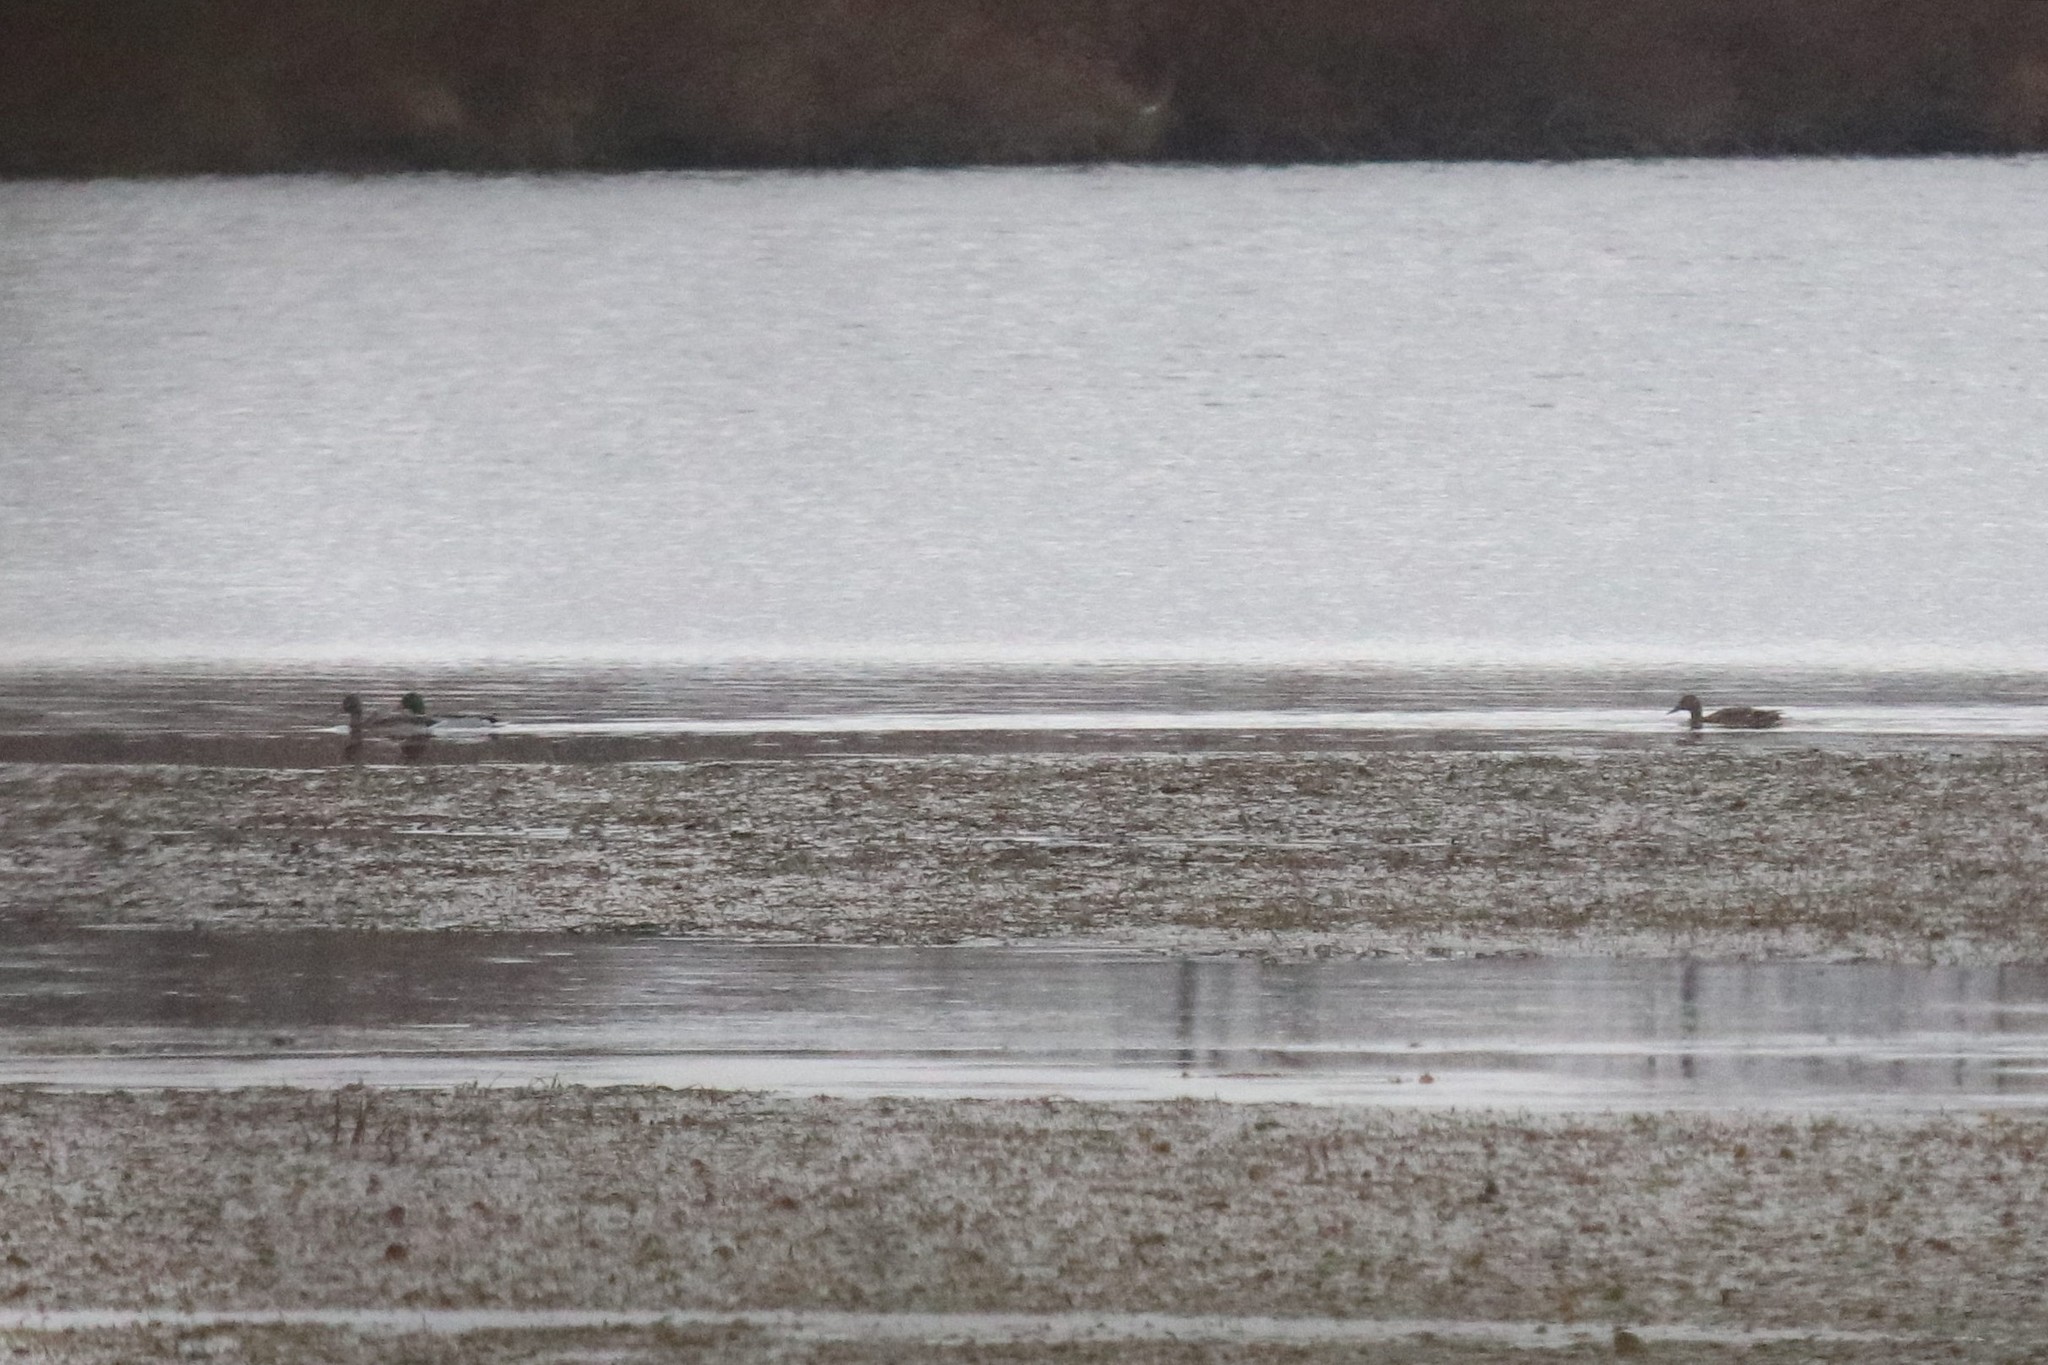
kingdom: Animalia
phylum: Chordata
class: Aves
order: Anseriformes
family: Anatidae
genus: Anas
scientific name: Anas platyrhynchos
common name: Mallard
